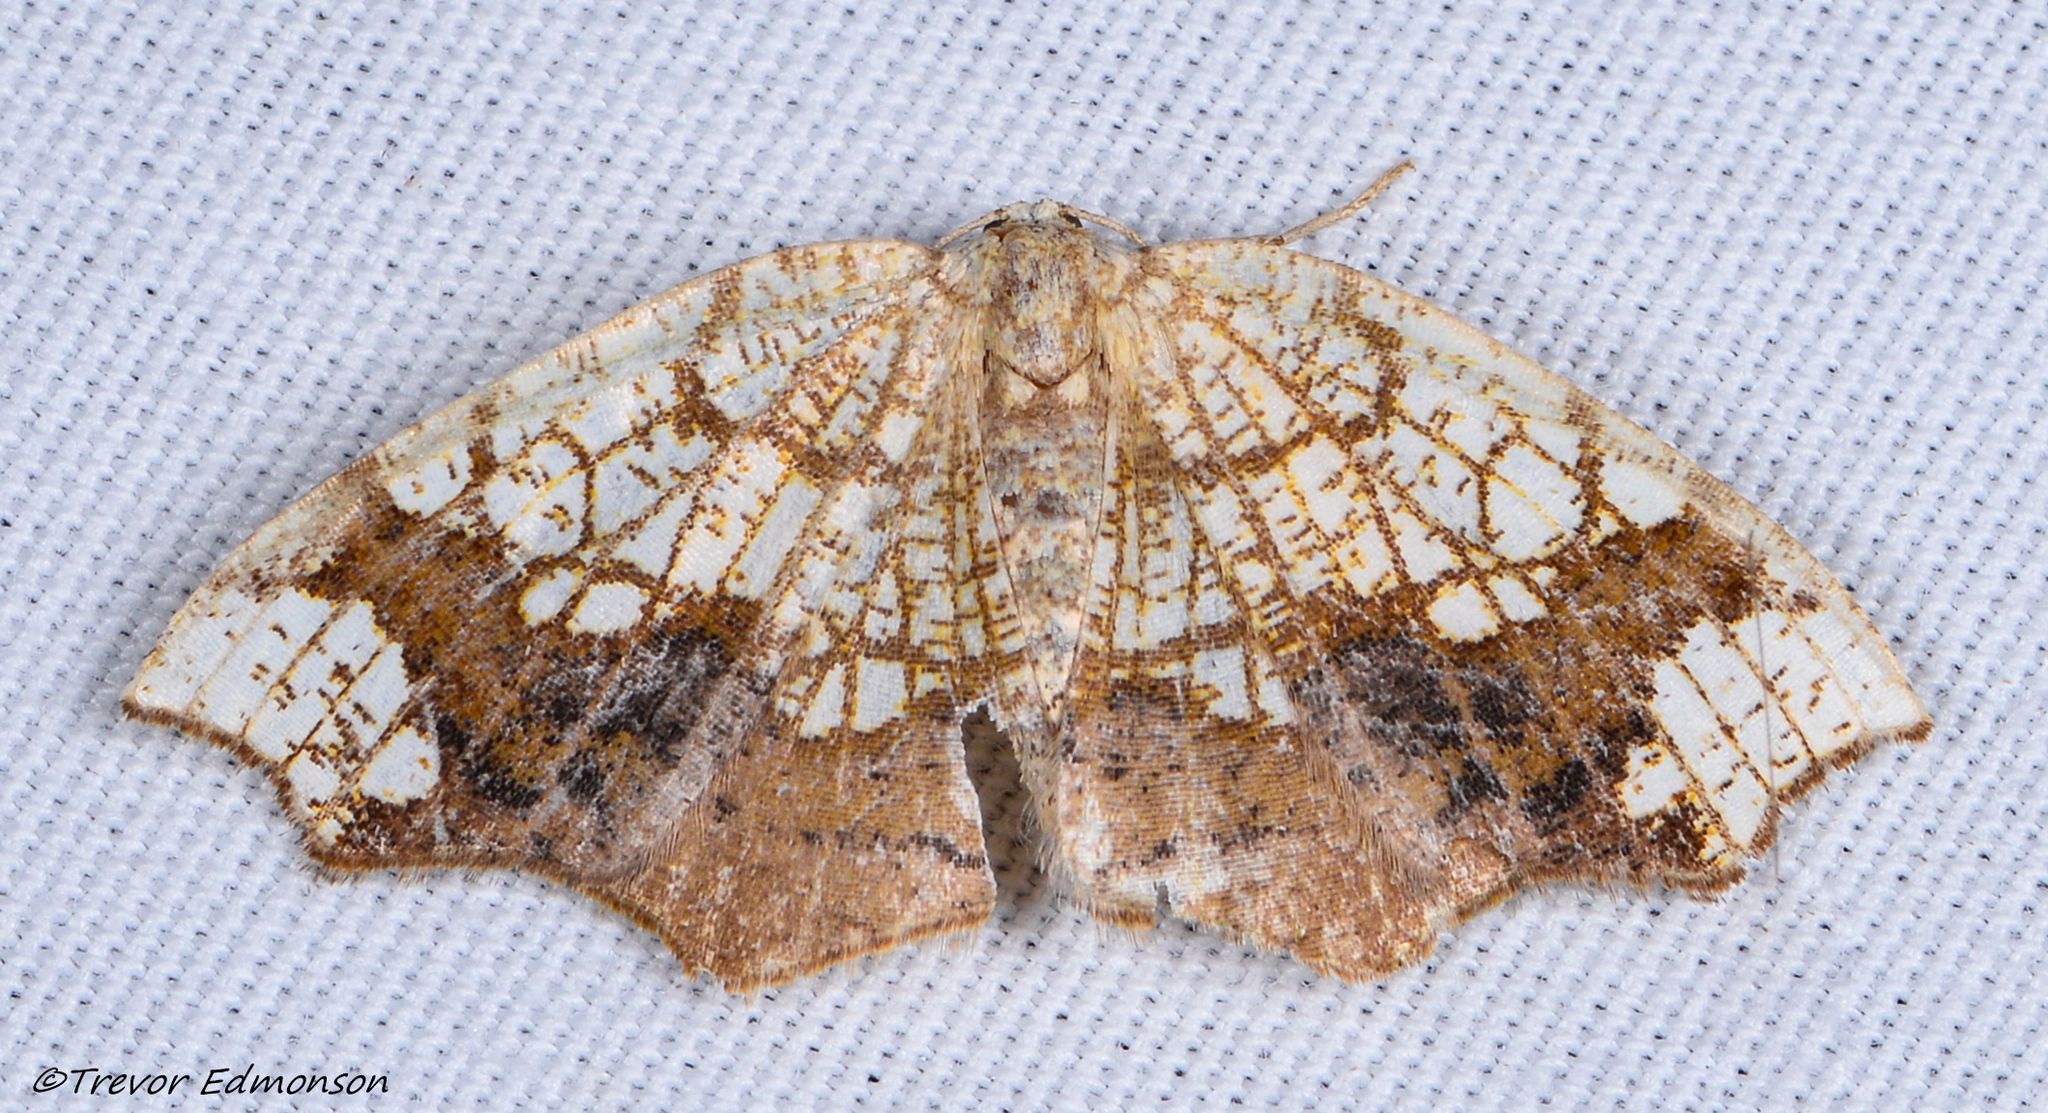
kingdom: Animalia
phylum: Arthropoda
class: Insecta
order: Lepidoptera
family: Geometridae
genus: Nematocampa
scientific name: Nematocampa resistaria
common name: Horned spanworm moth
